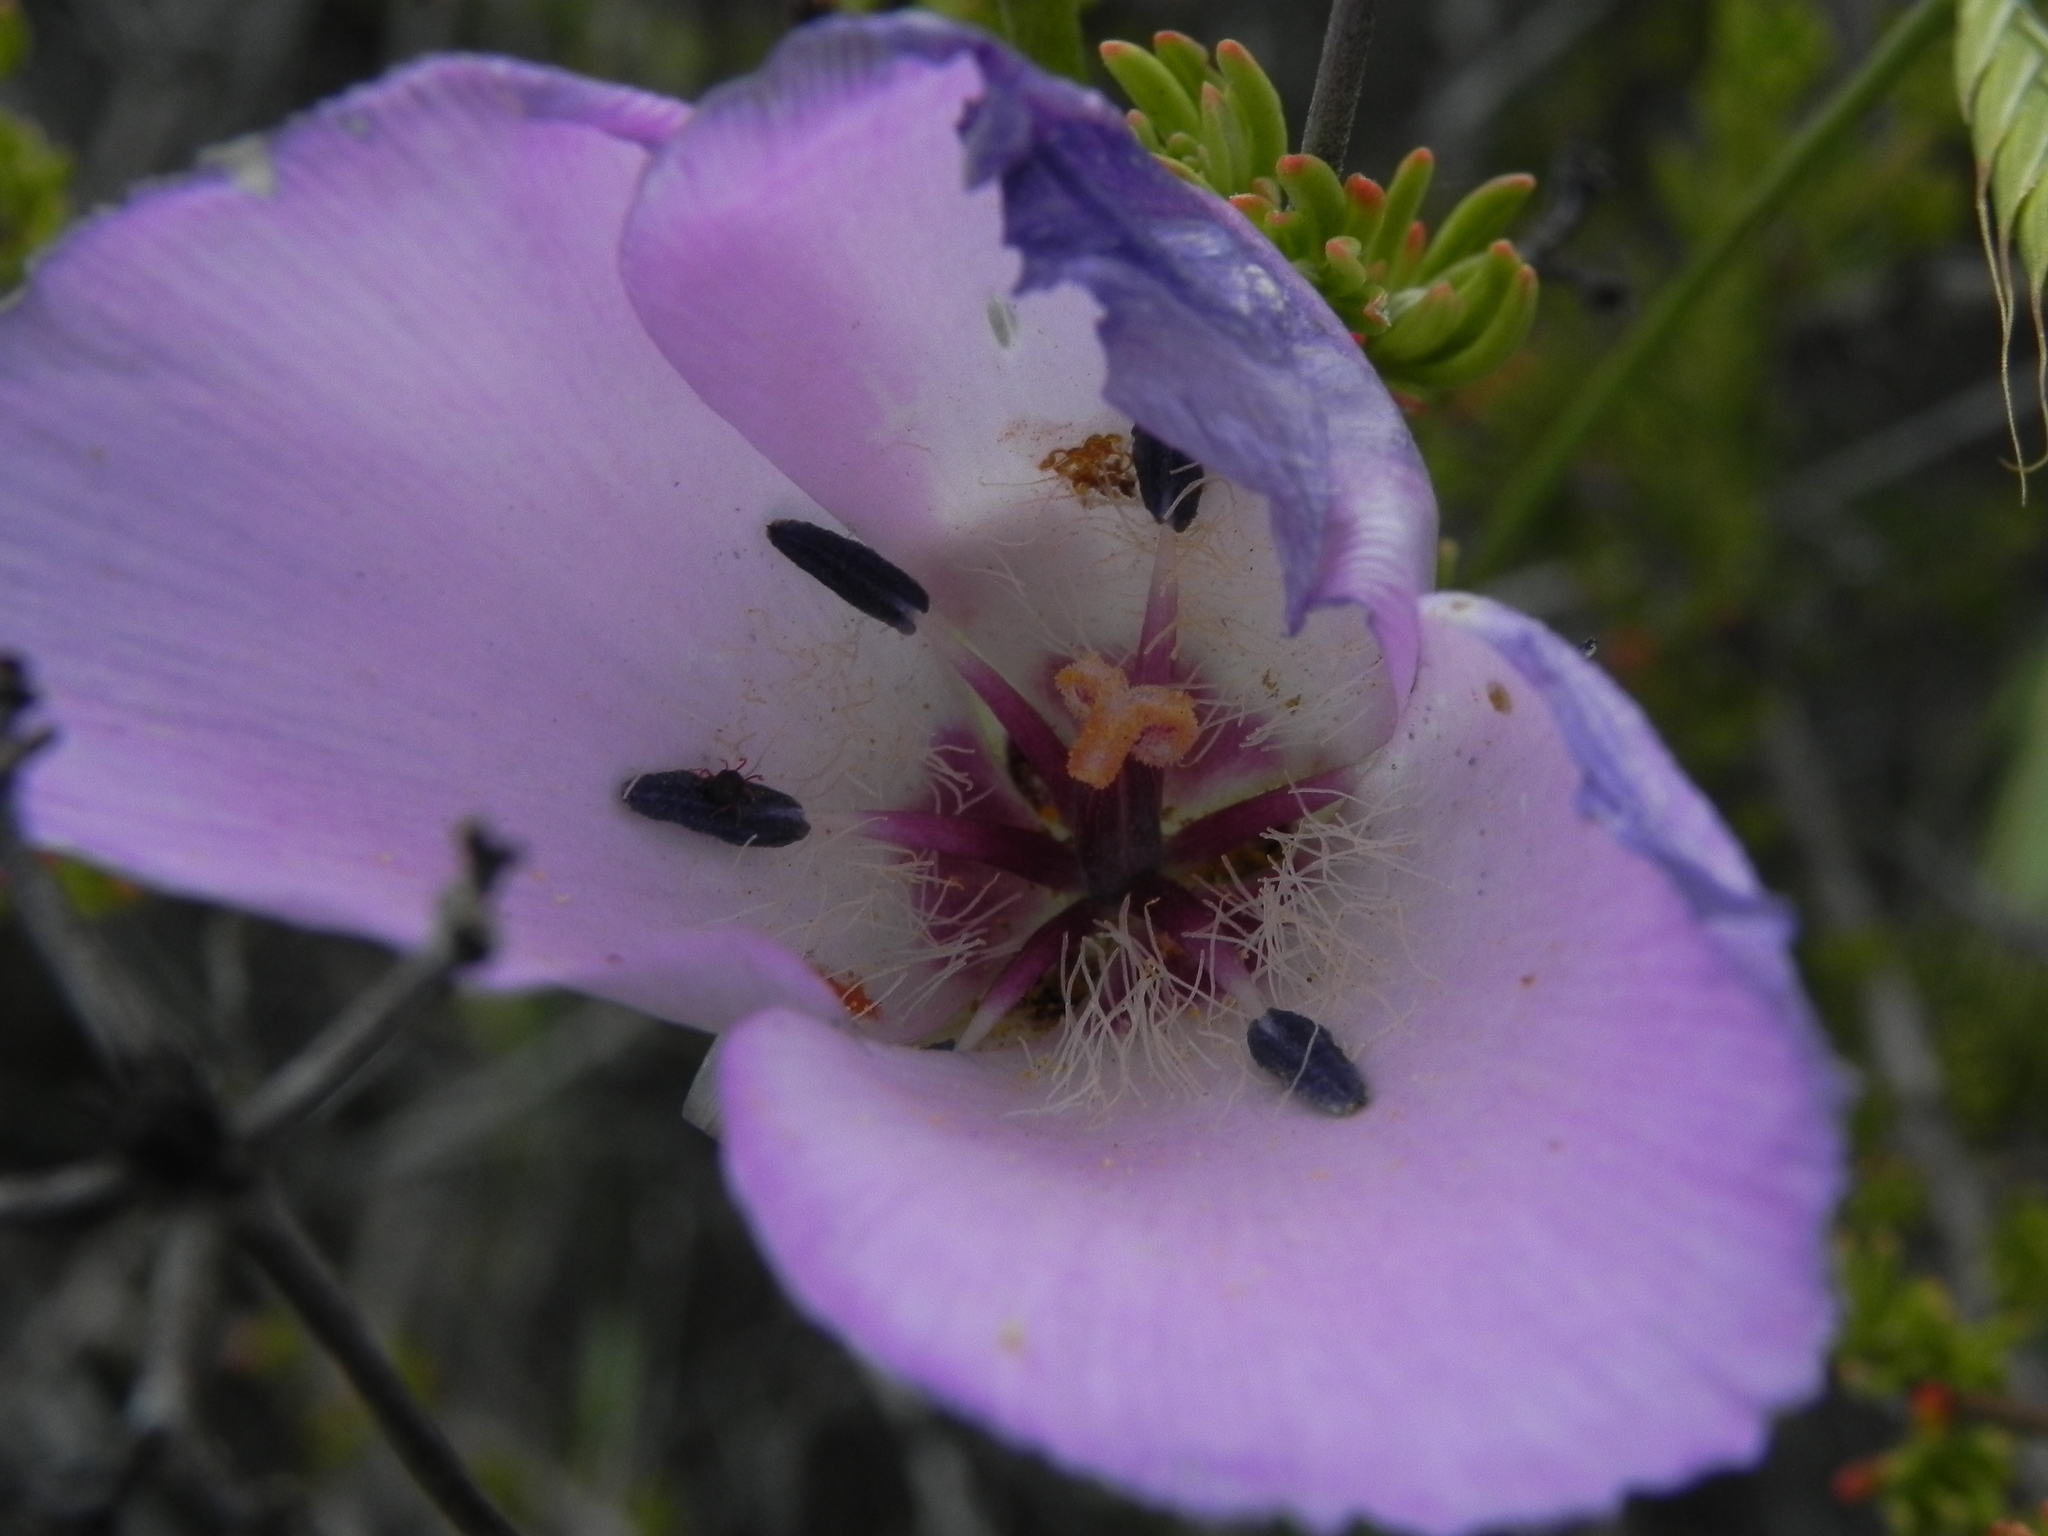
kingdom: Plantae
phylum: Tracheophyta
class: Liliopsida
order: Liliales
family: Liliaceae
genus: Calochortus
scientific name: Calochortus splendens
